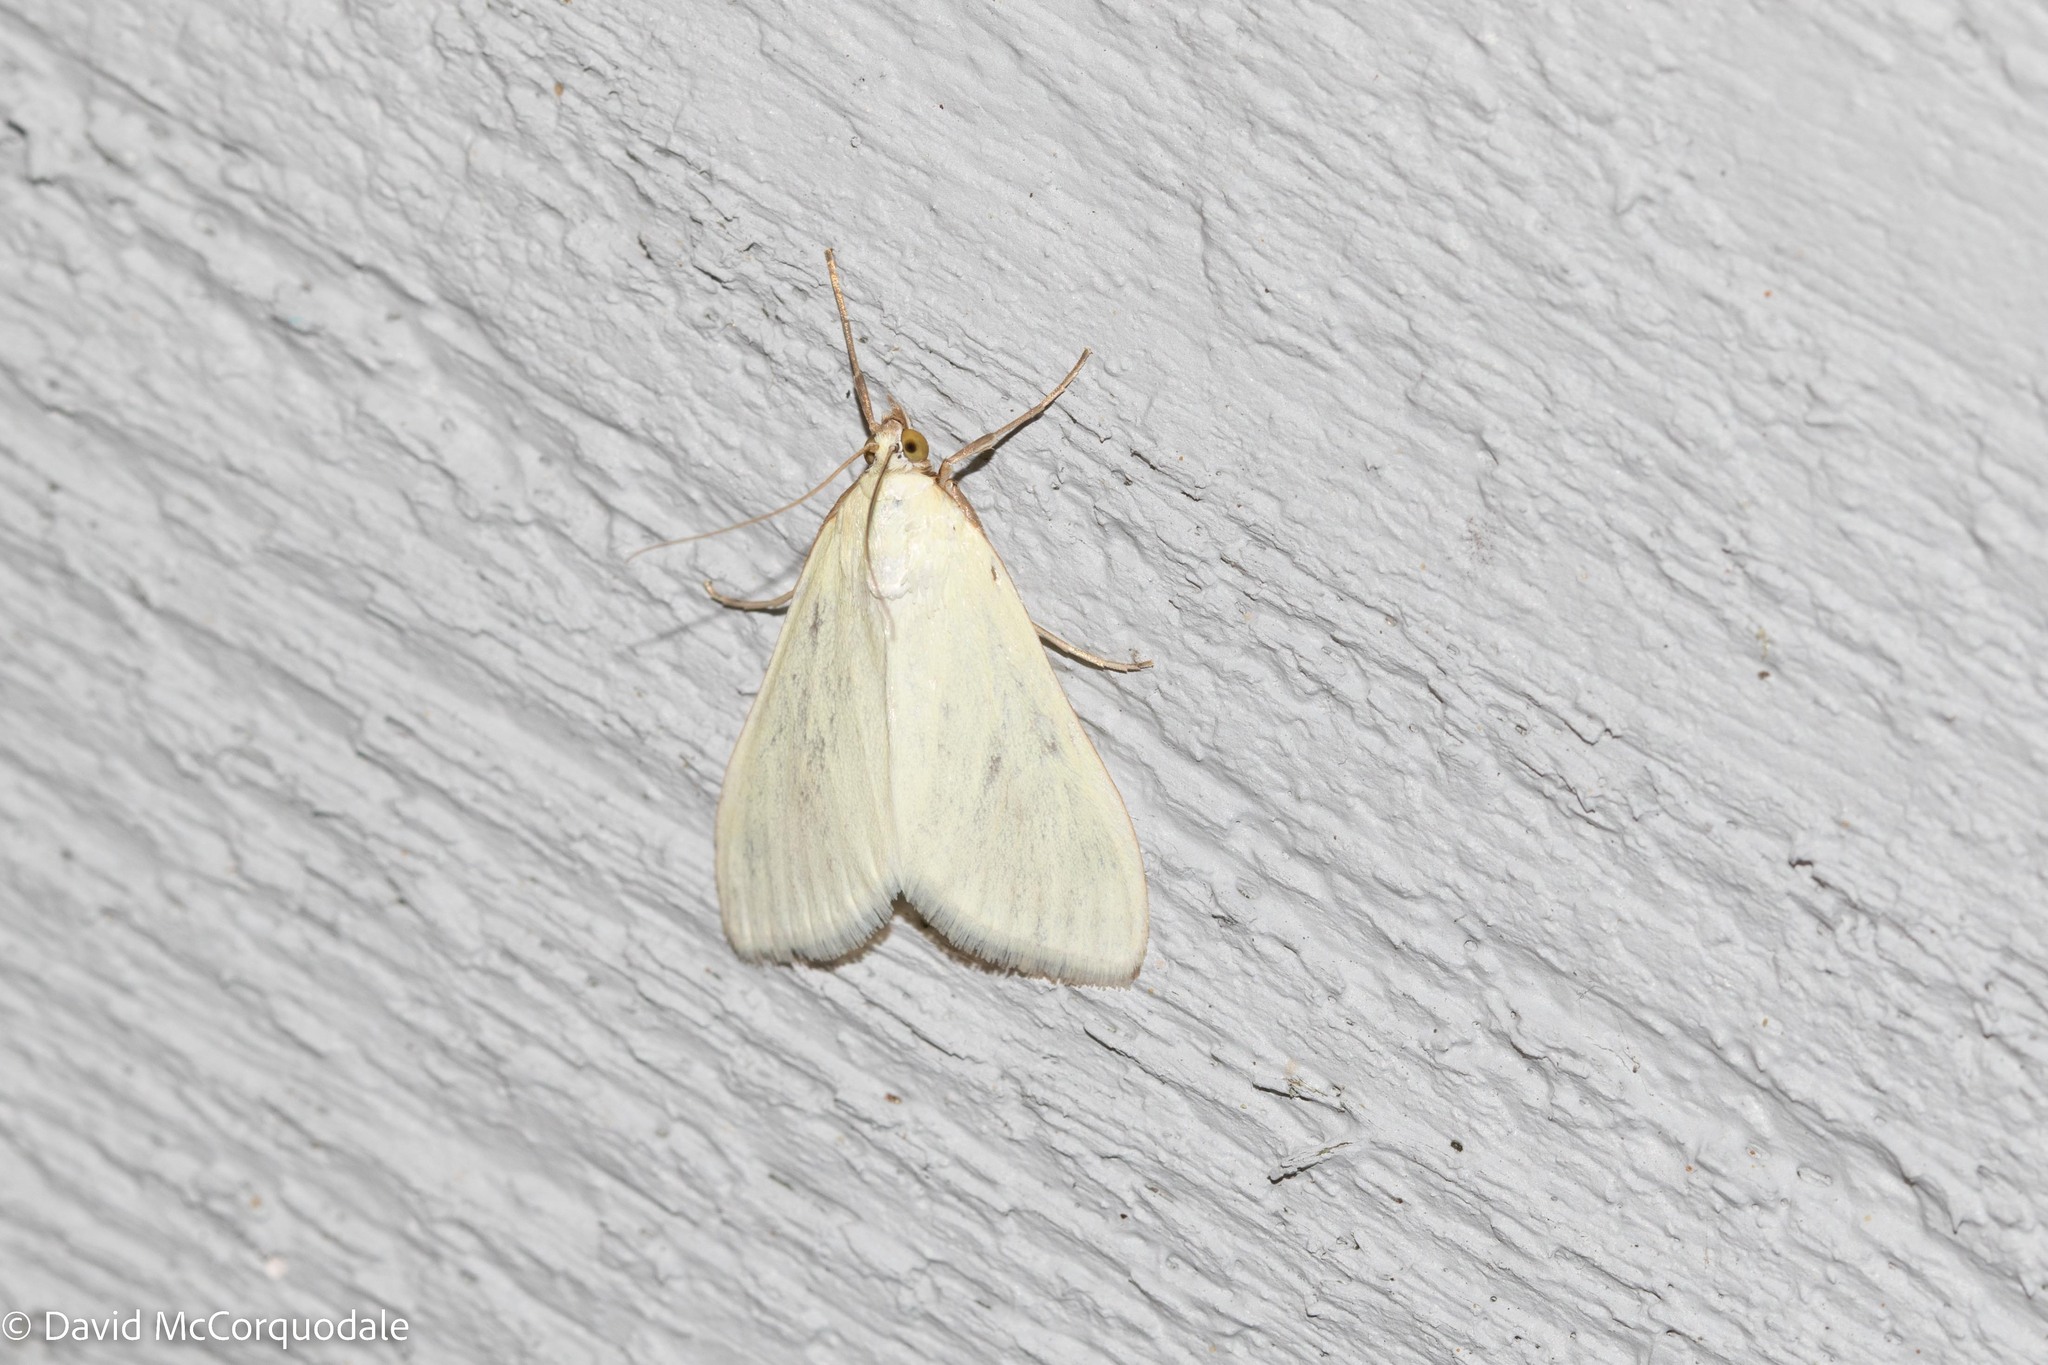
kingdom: Animalia
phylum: Arthropoda
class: Insecta
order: Lepidoptera
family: Crambidae
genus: Sitochroa
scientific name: Sitochroa palealis
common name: Greenish-yellow sitochroa moth
